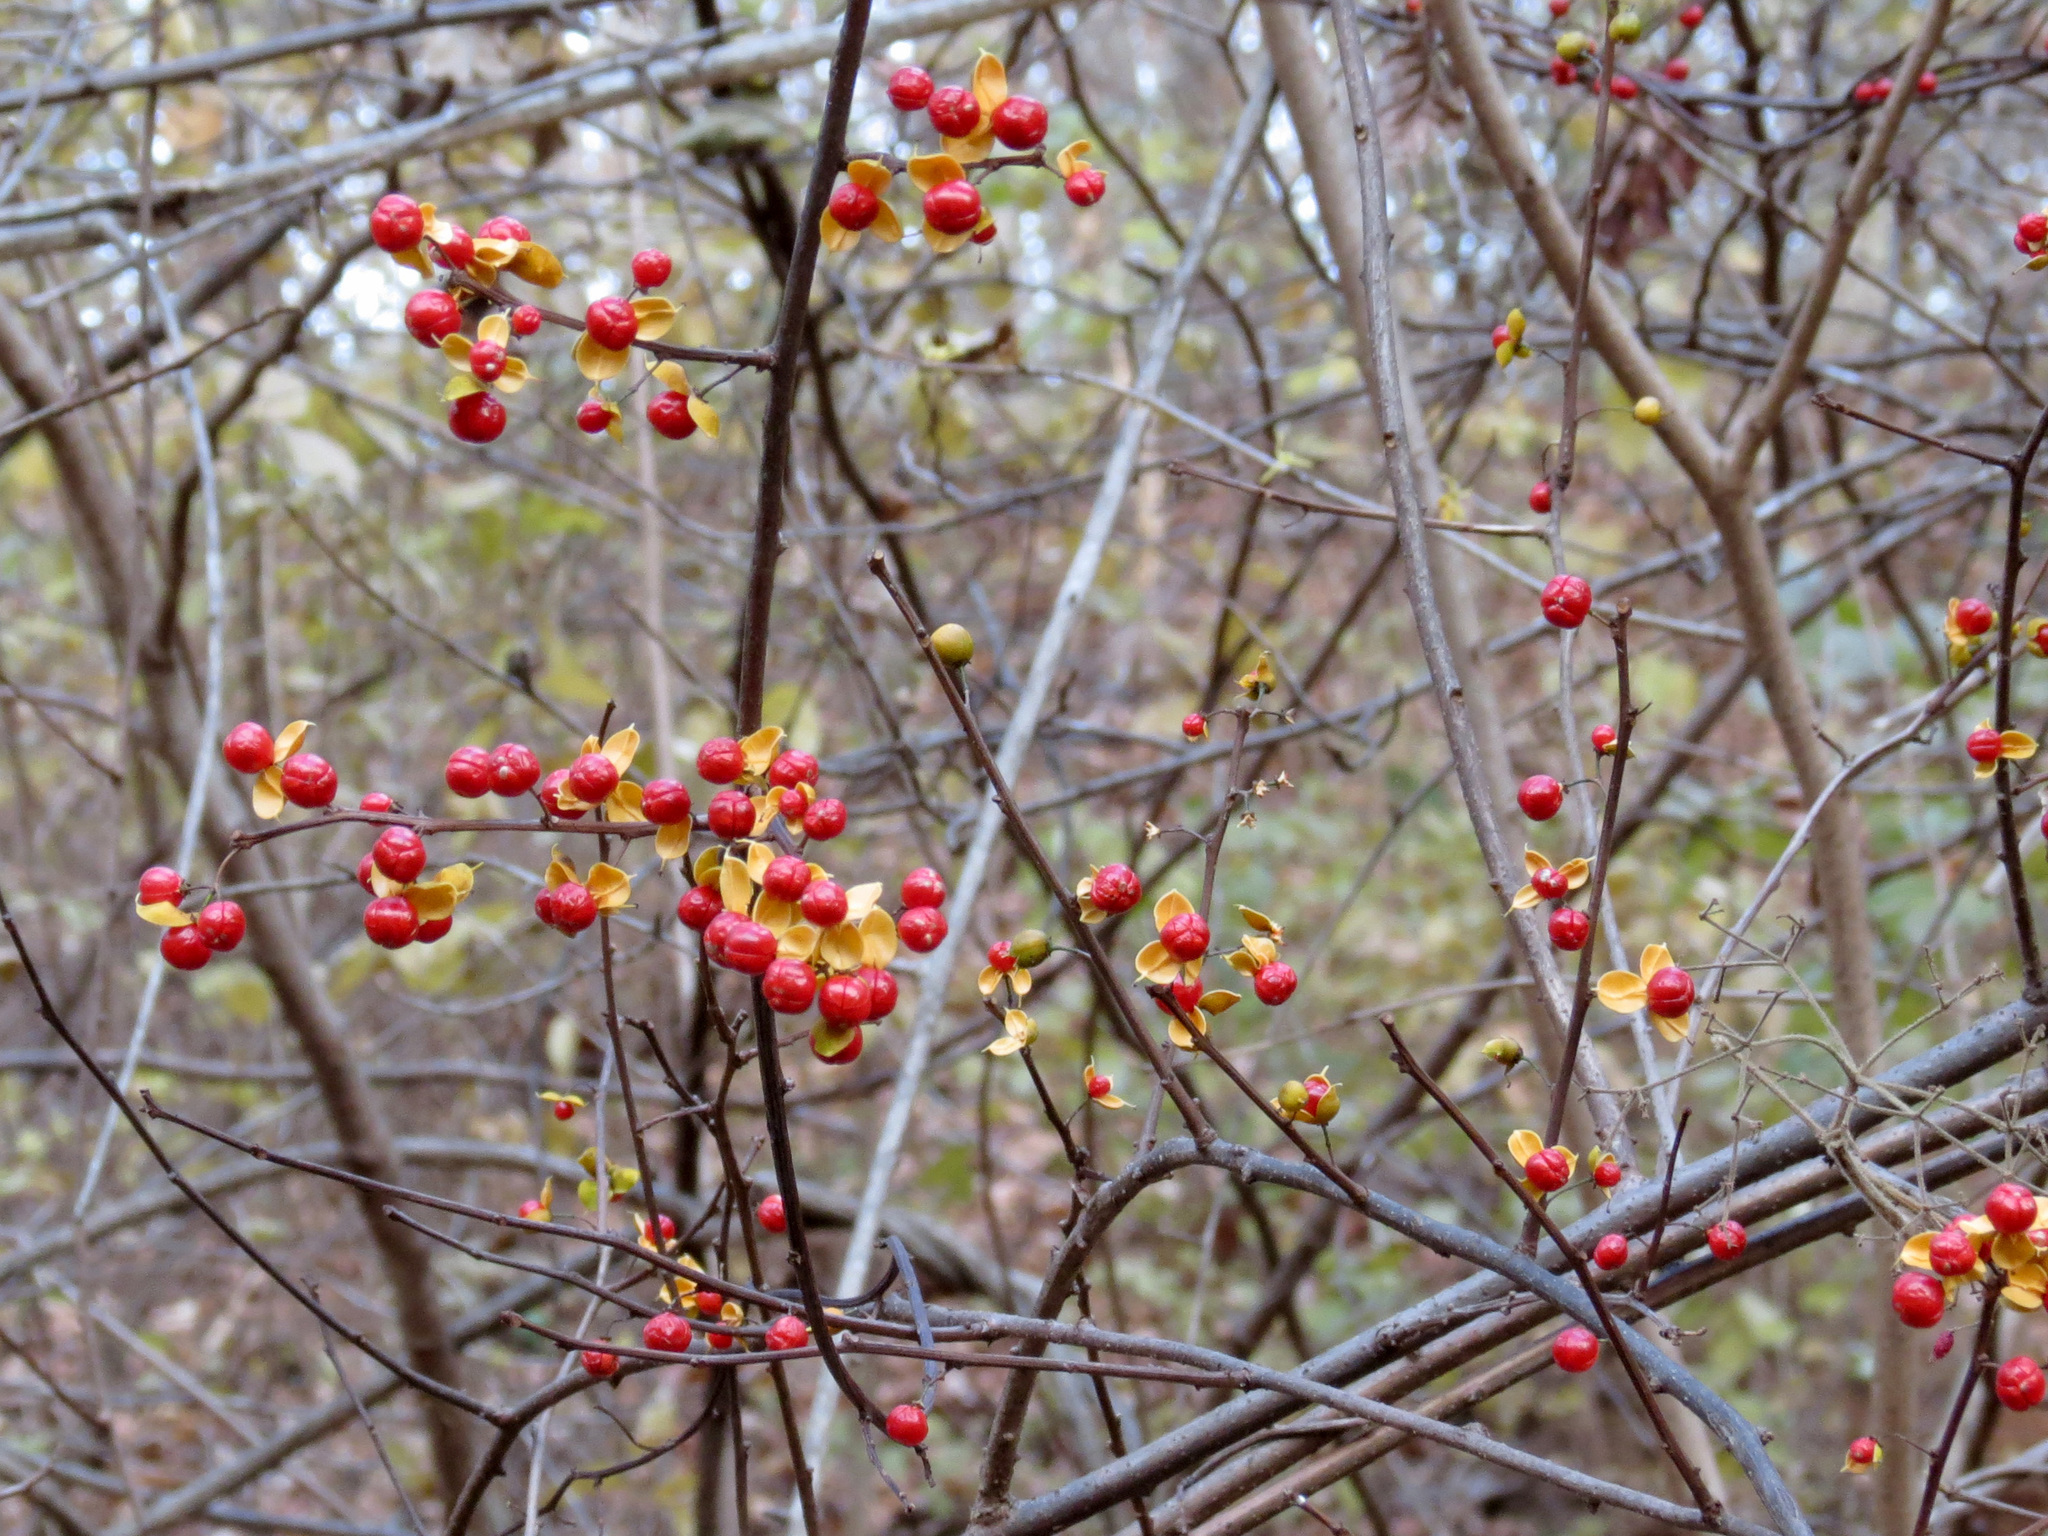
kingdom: Plantae
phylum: Tracheophyta
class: Magnoliopsida
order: Celastrales
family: Celastraceae
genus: Celastrus
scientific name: Celastrus orbiculatus
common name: Oriental bittersweet
